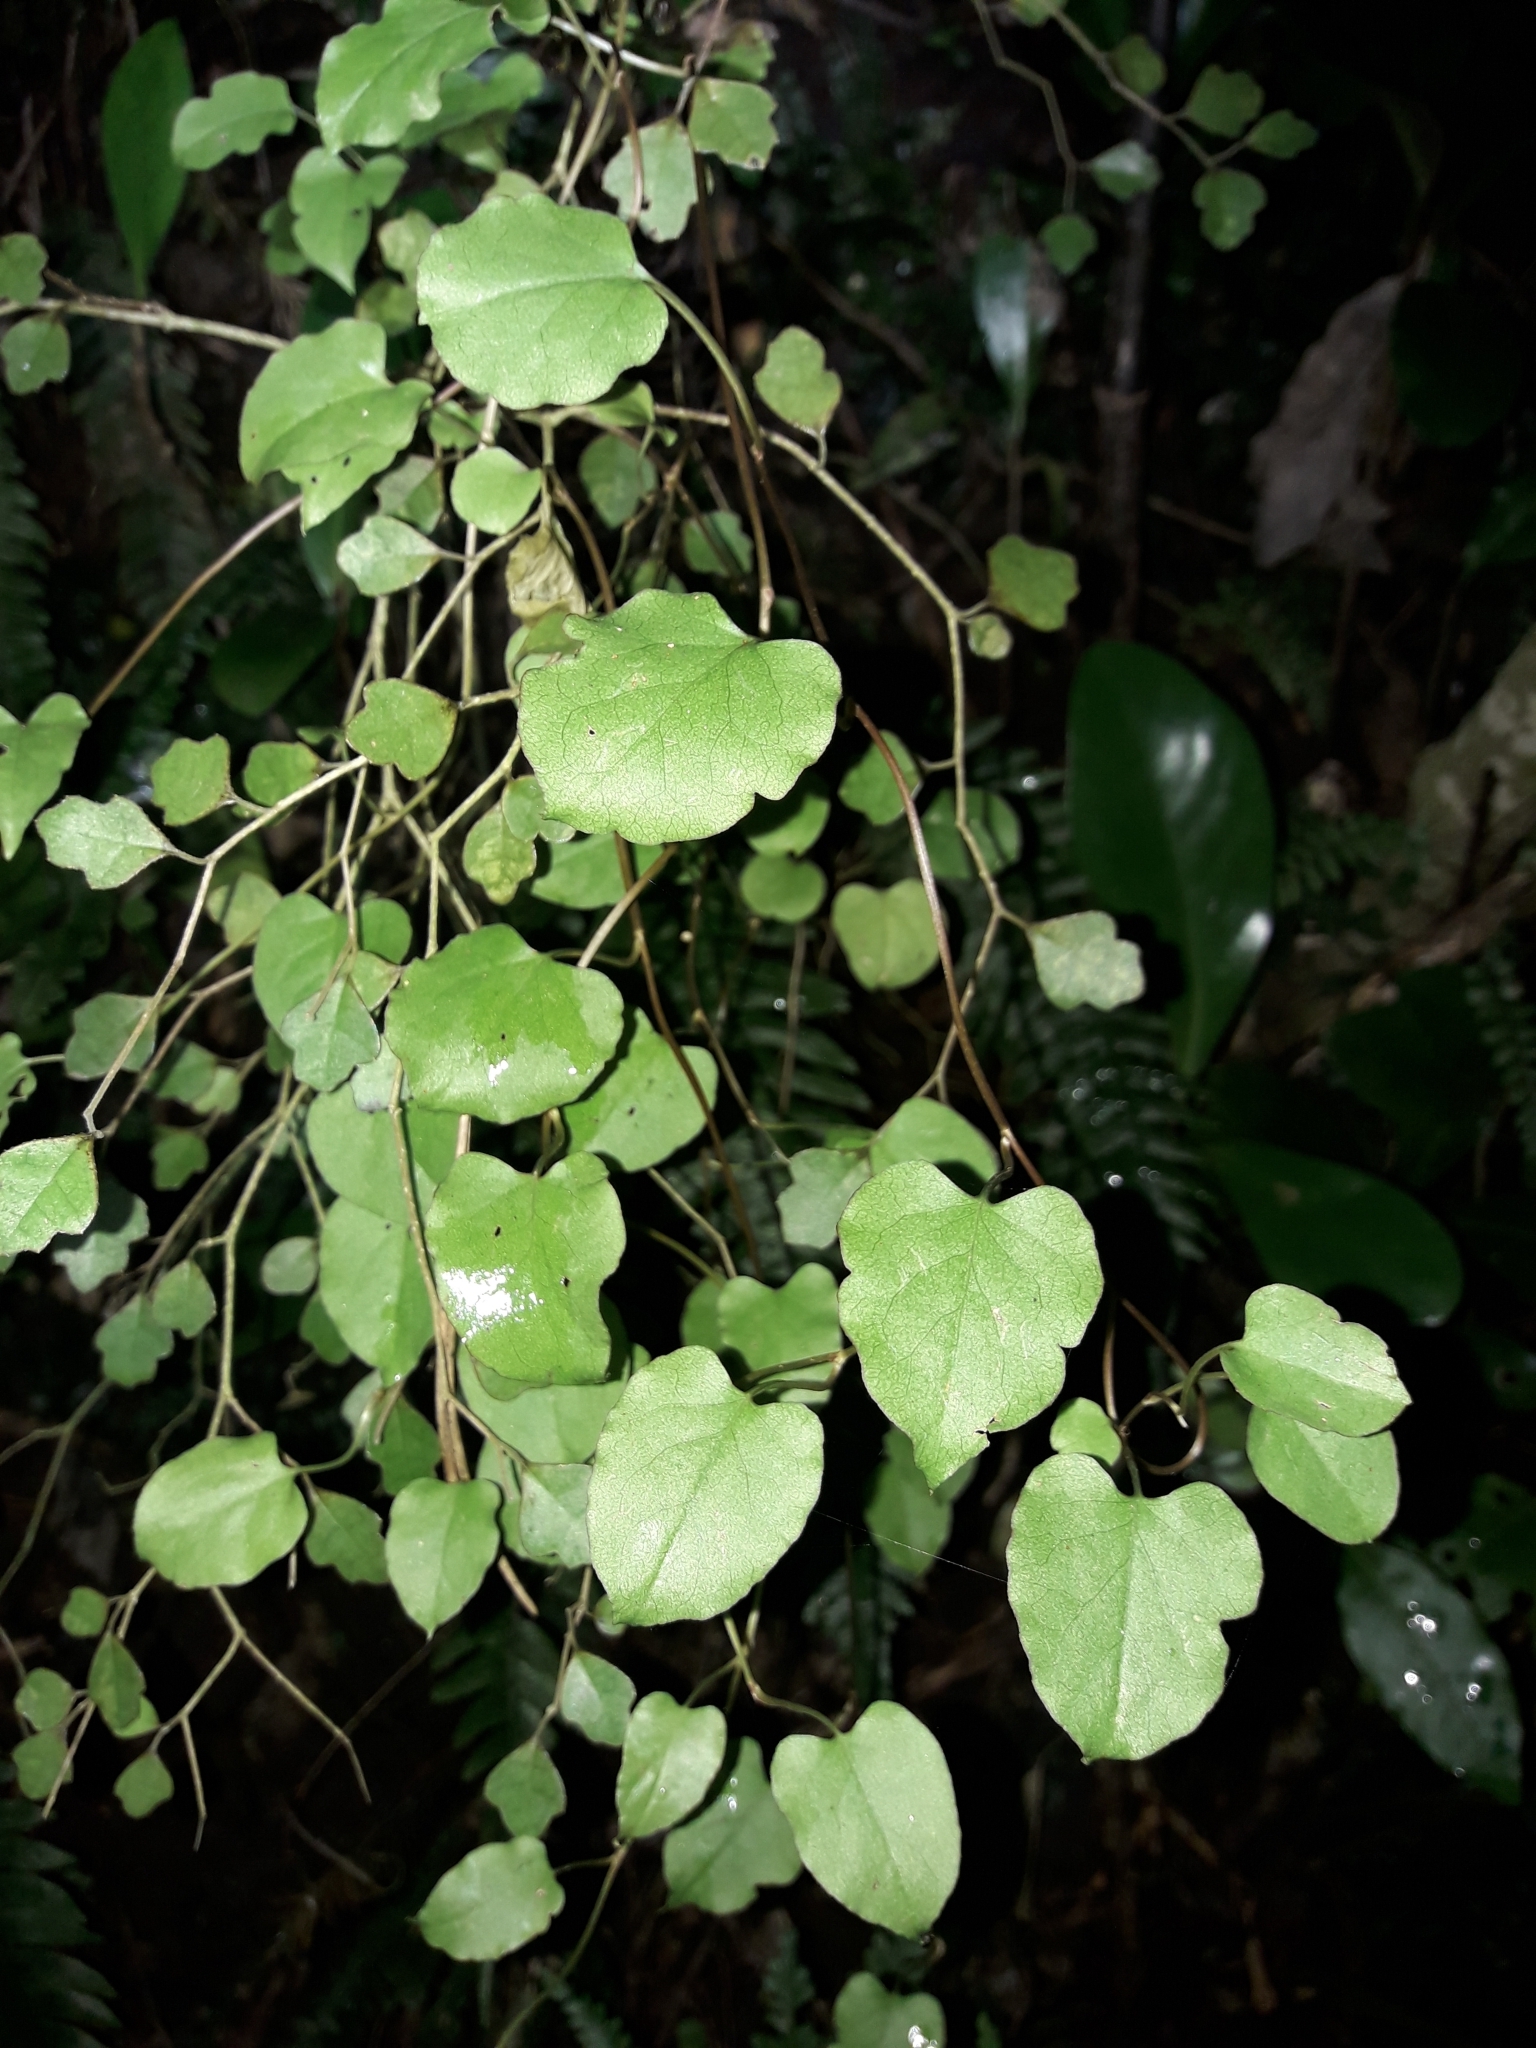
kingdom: Plantae
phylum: Tracheophyta
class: Magnoliopsida
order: Caryophyllales
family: Polygonaceae
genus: Muehlenbeckia
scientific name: Muehlenbeckia australis
